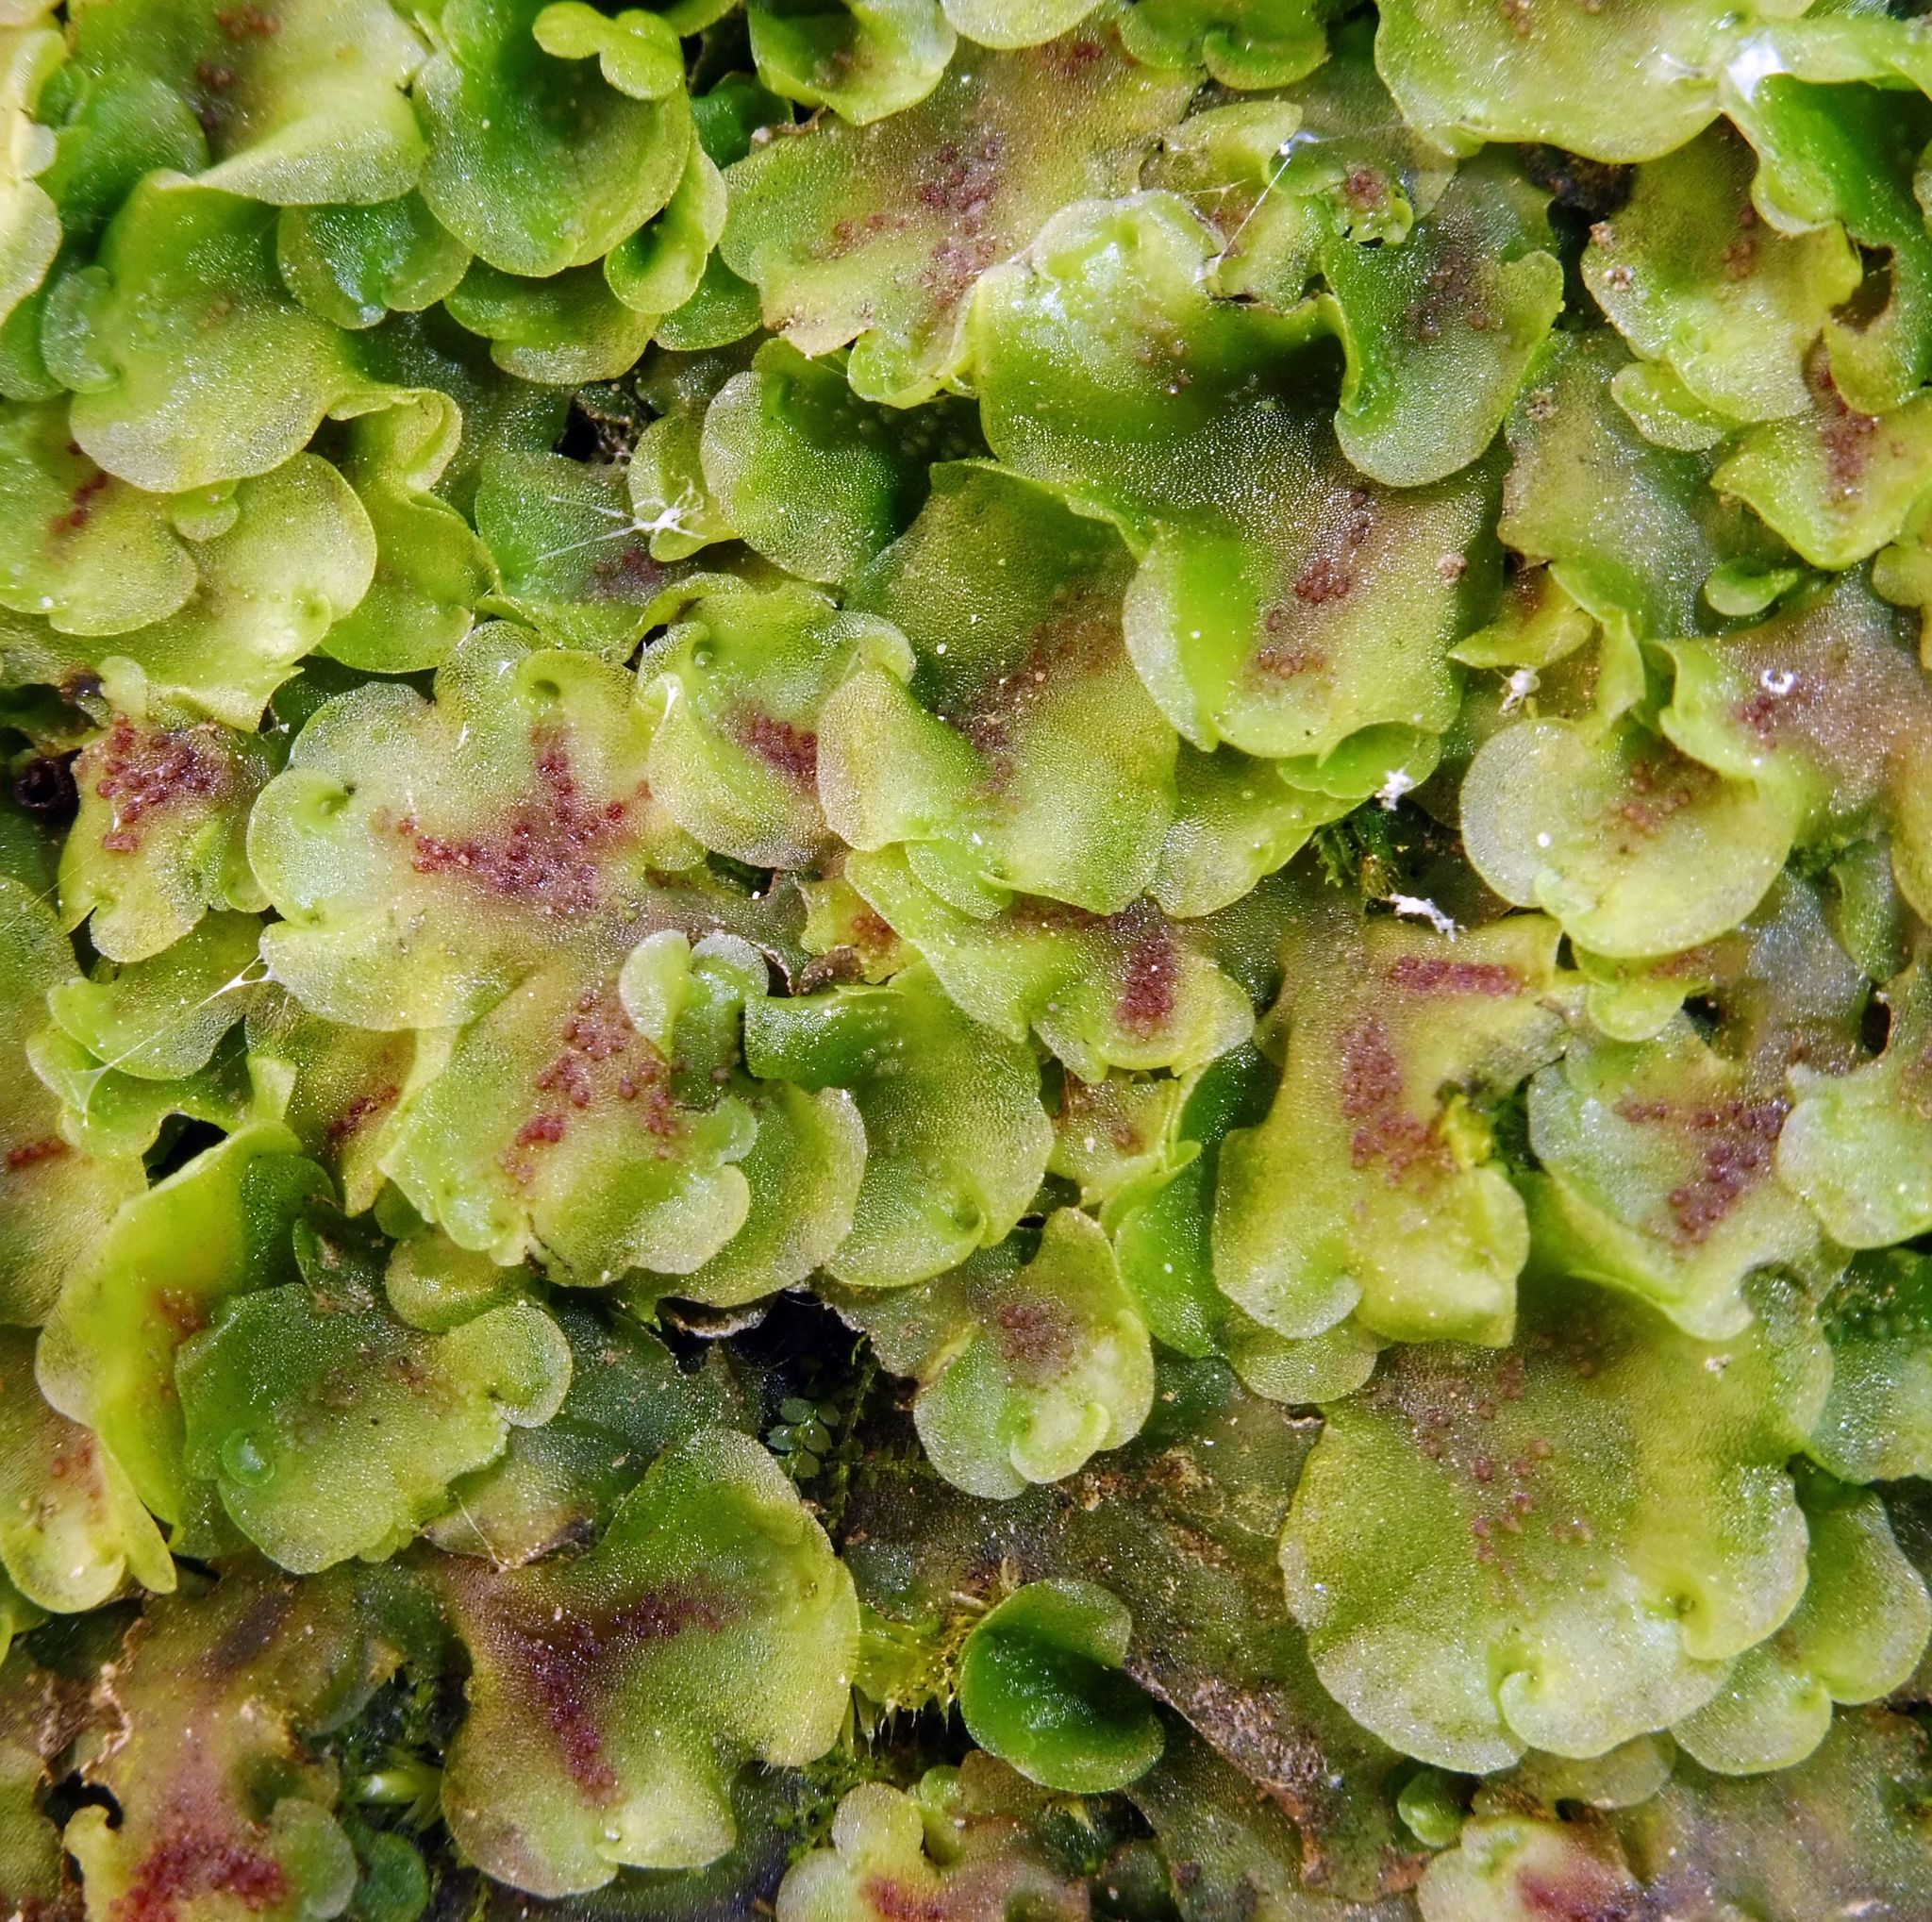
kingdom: Plantae
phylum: Marchantiophyta
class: Jungermanniopsida
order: Pelliales
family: Pelliaceae
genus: Pellia
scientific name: Pellia neesiana
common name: Nees  pellia
